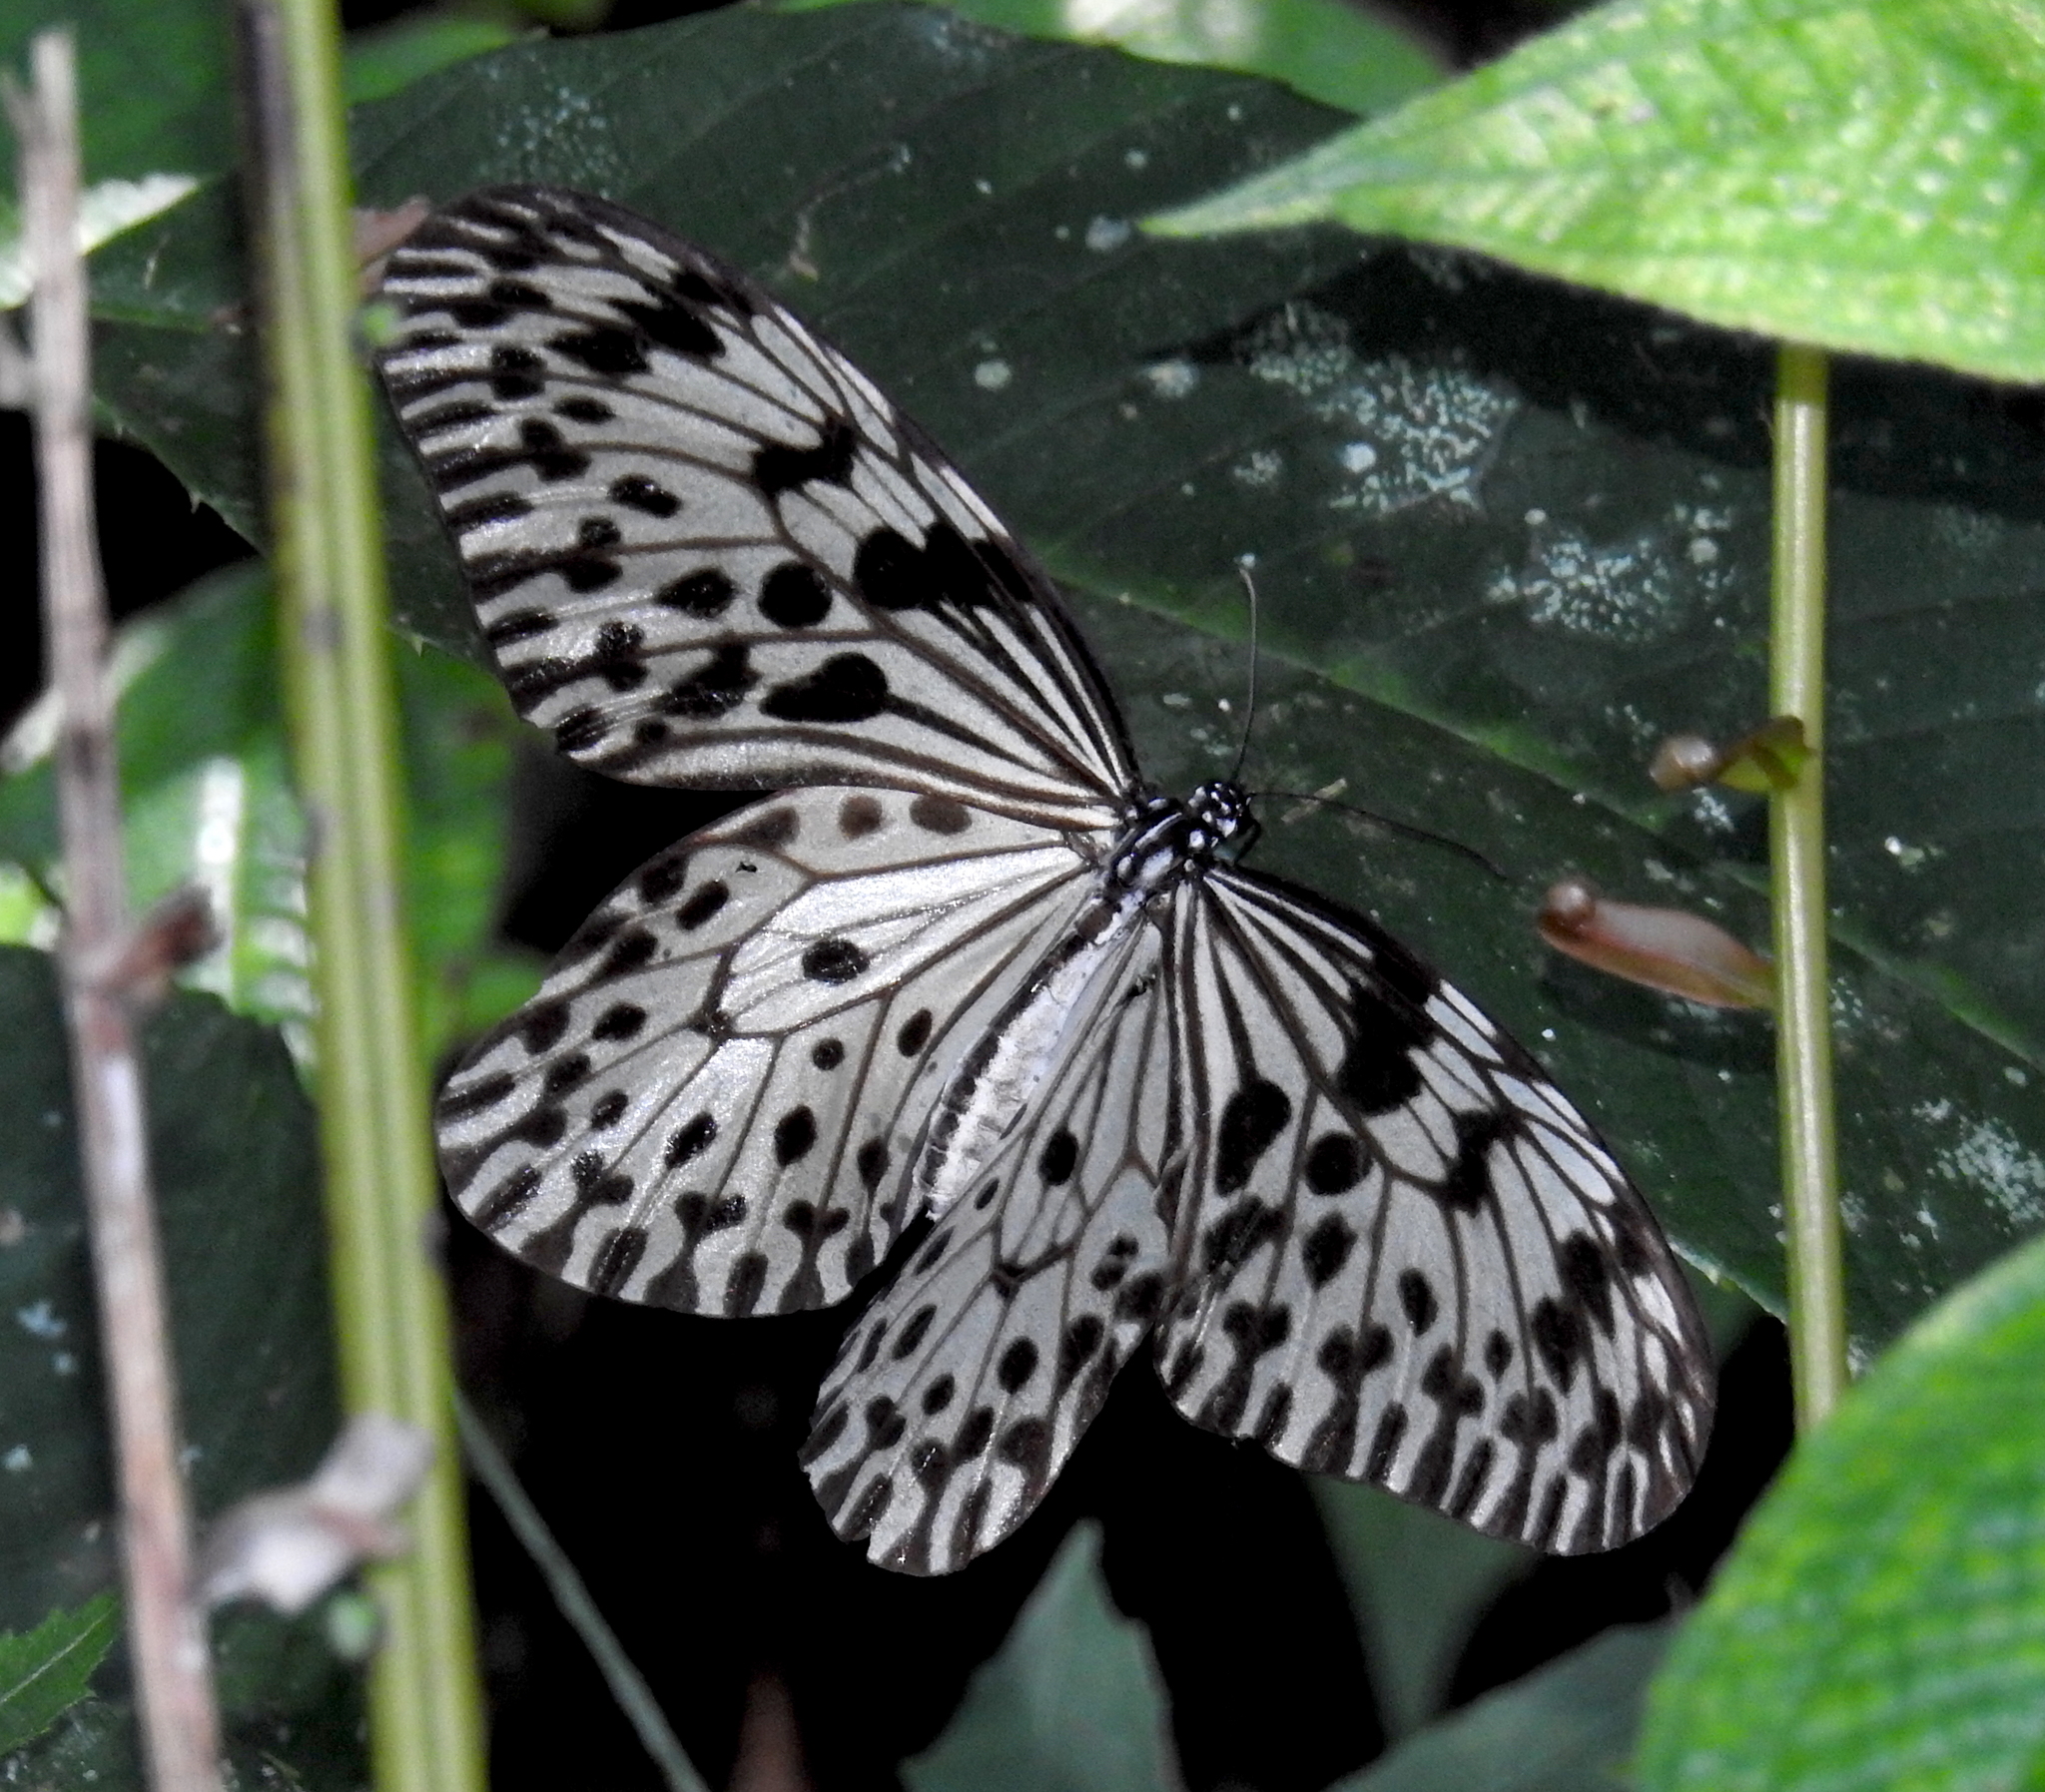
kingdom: Animalia
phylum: Arthropoda
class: Insecta
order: Lepidoptera
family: Nymphalidae
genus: Idea
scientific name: Idea iasonia
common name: Ceylon tree-nymph
